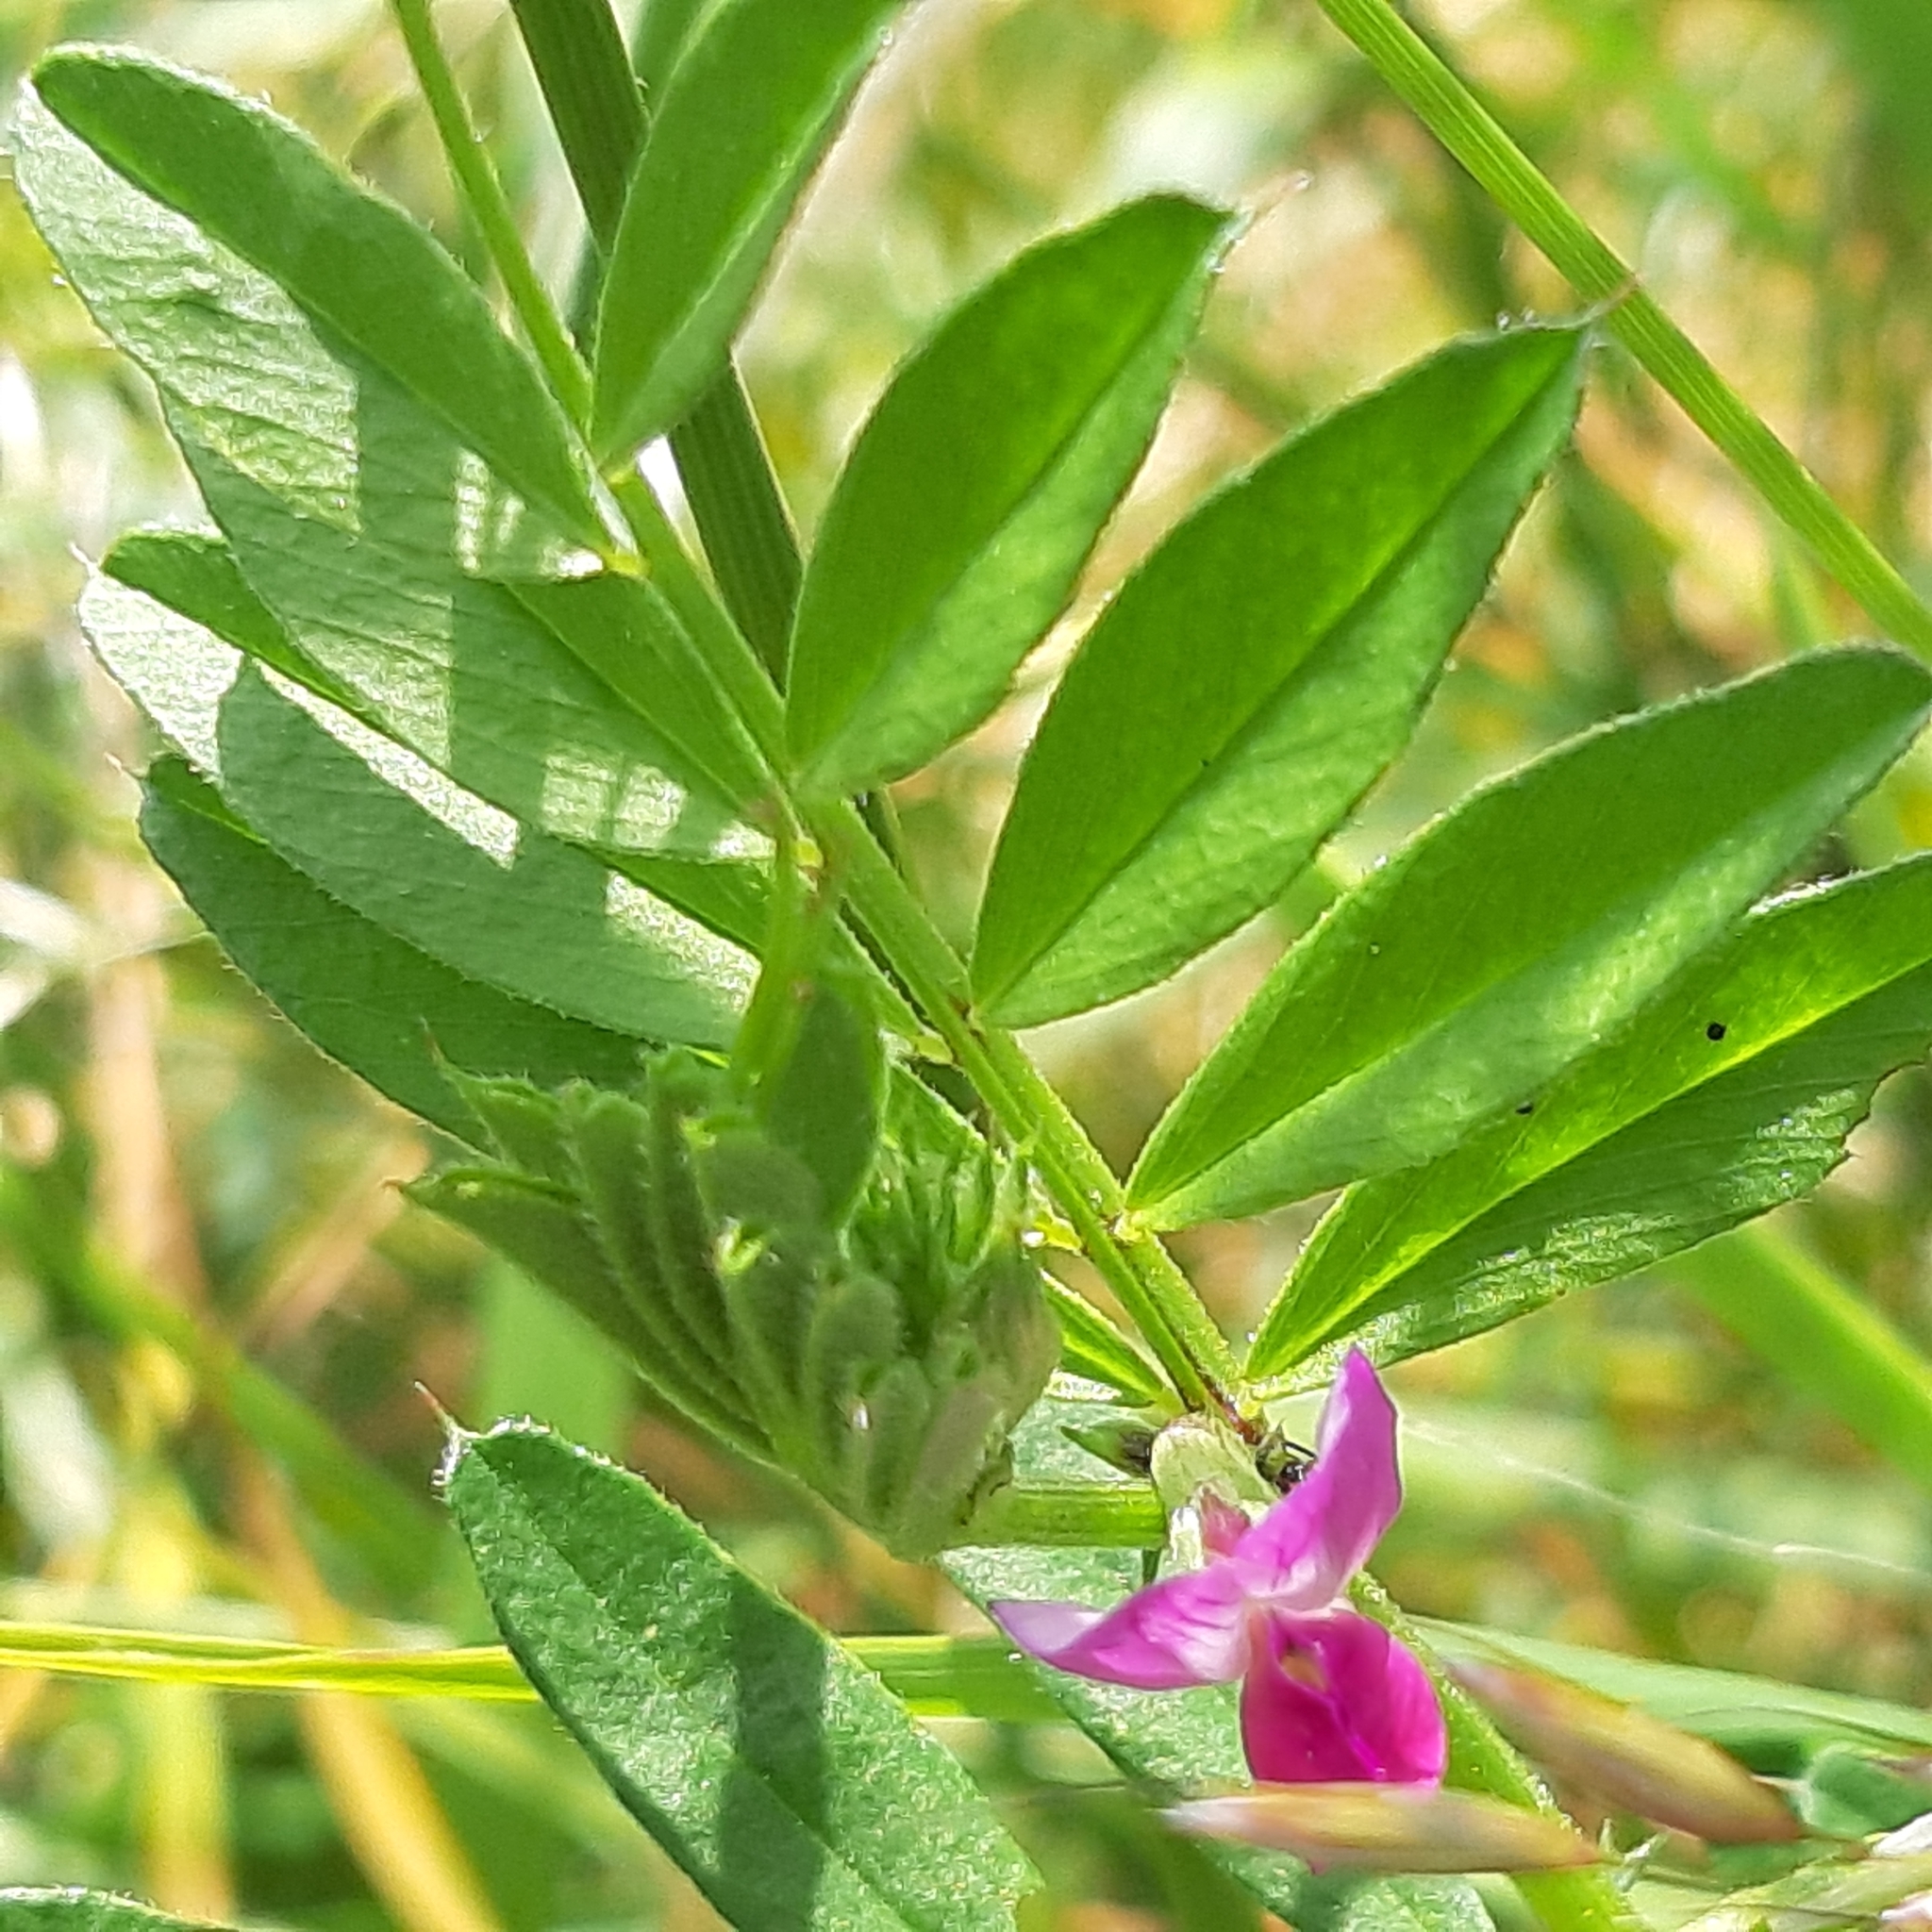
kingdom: Plantae
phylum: Tracheophyta
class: Magnoliopsida
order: Fabales
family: Fabaceae
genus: Vicia
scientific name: Vicia sativa
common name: Garden vetch
